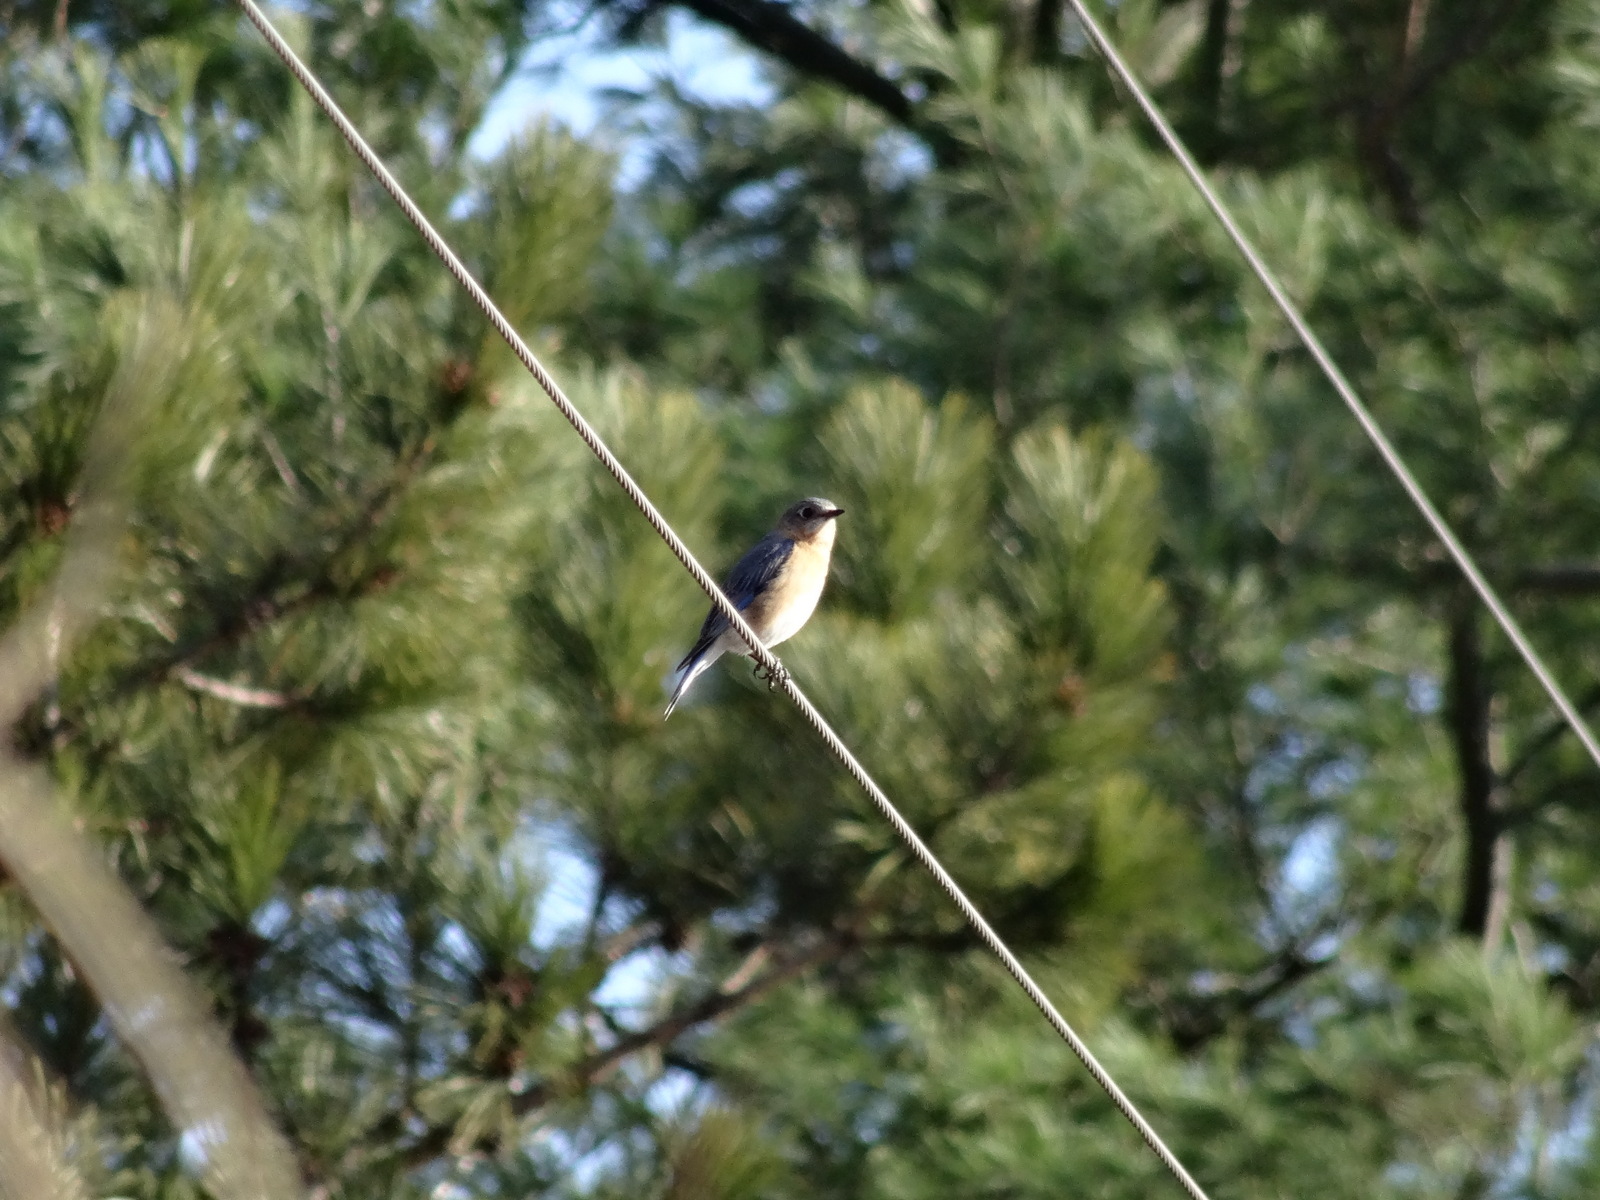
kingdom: Animalia
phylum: Chordata
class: Aves
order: Passeriformes
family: Turdidae
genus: Sialia
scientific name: Sialia sialis
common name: Eastern bluebird
